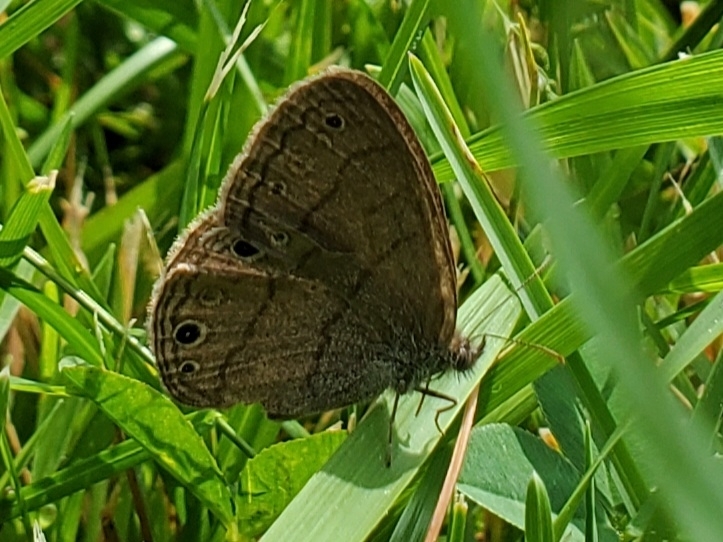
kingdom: Animalia
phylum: Arthropoda
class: Insecta
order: Lepidoptera
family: Nymphalidae
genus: Hermeuptychia
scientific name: Hermeuptychia hermes
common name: Hermes satyr
